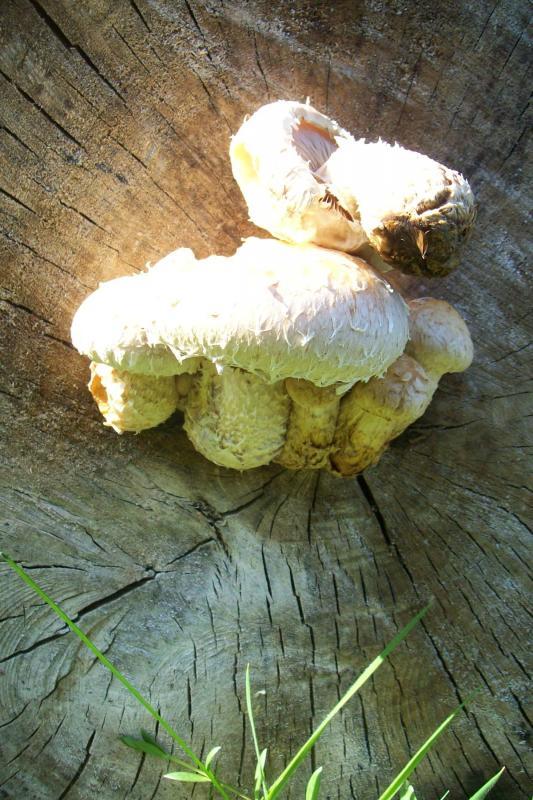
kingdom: Fungi
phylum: Basidiomycota
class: Agaricomycetes
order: Agaricales
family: Strophariaceae
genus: Pholiota
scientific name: Pholiota populnea
